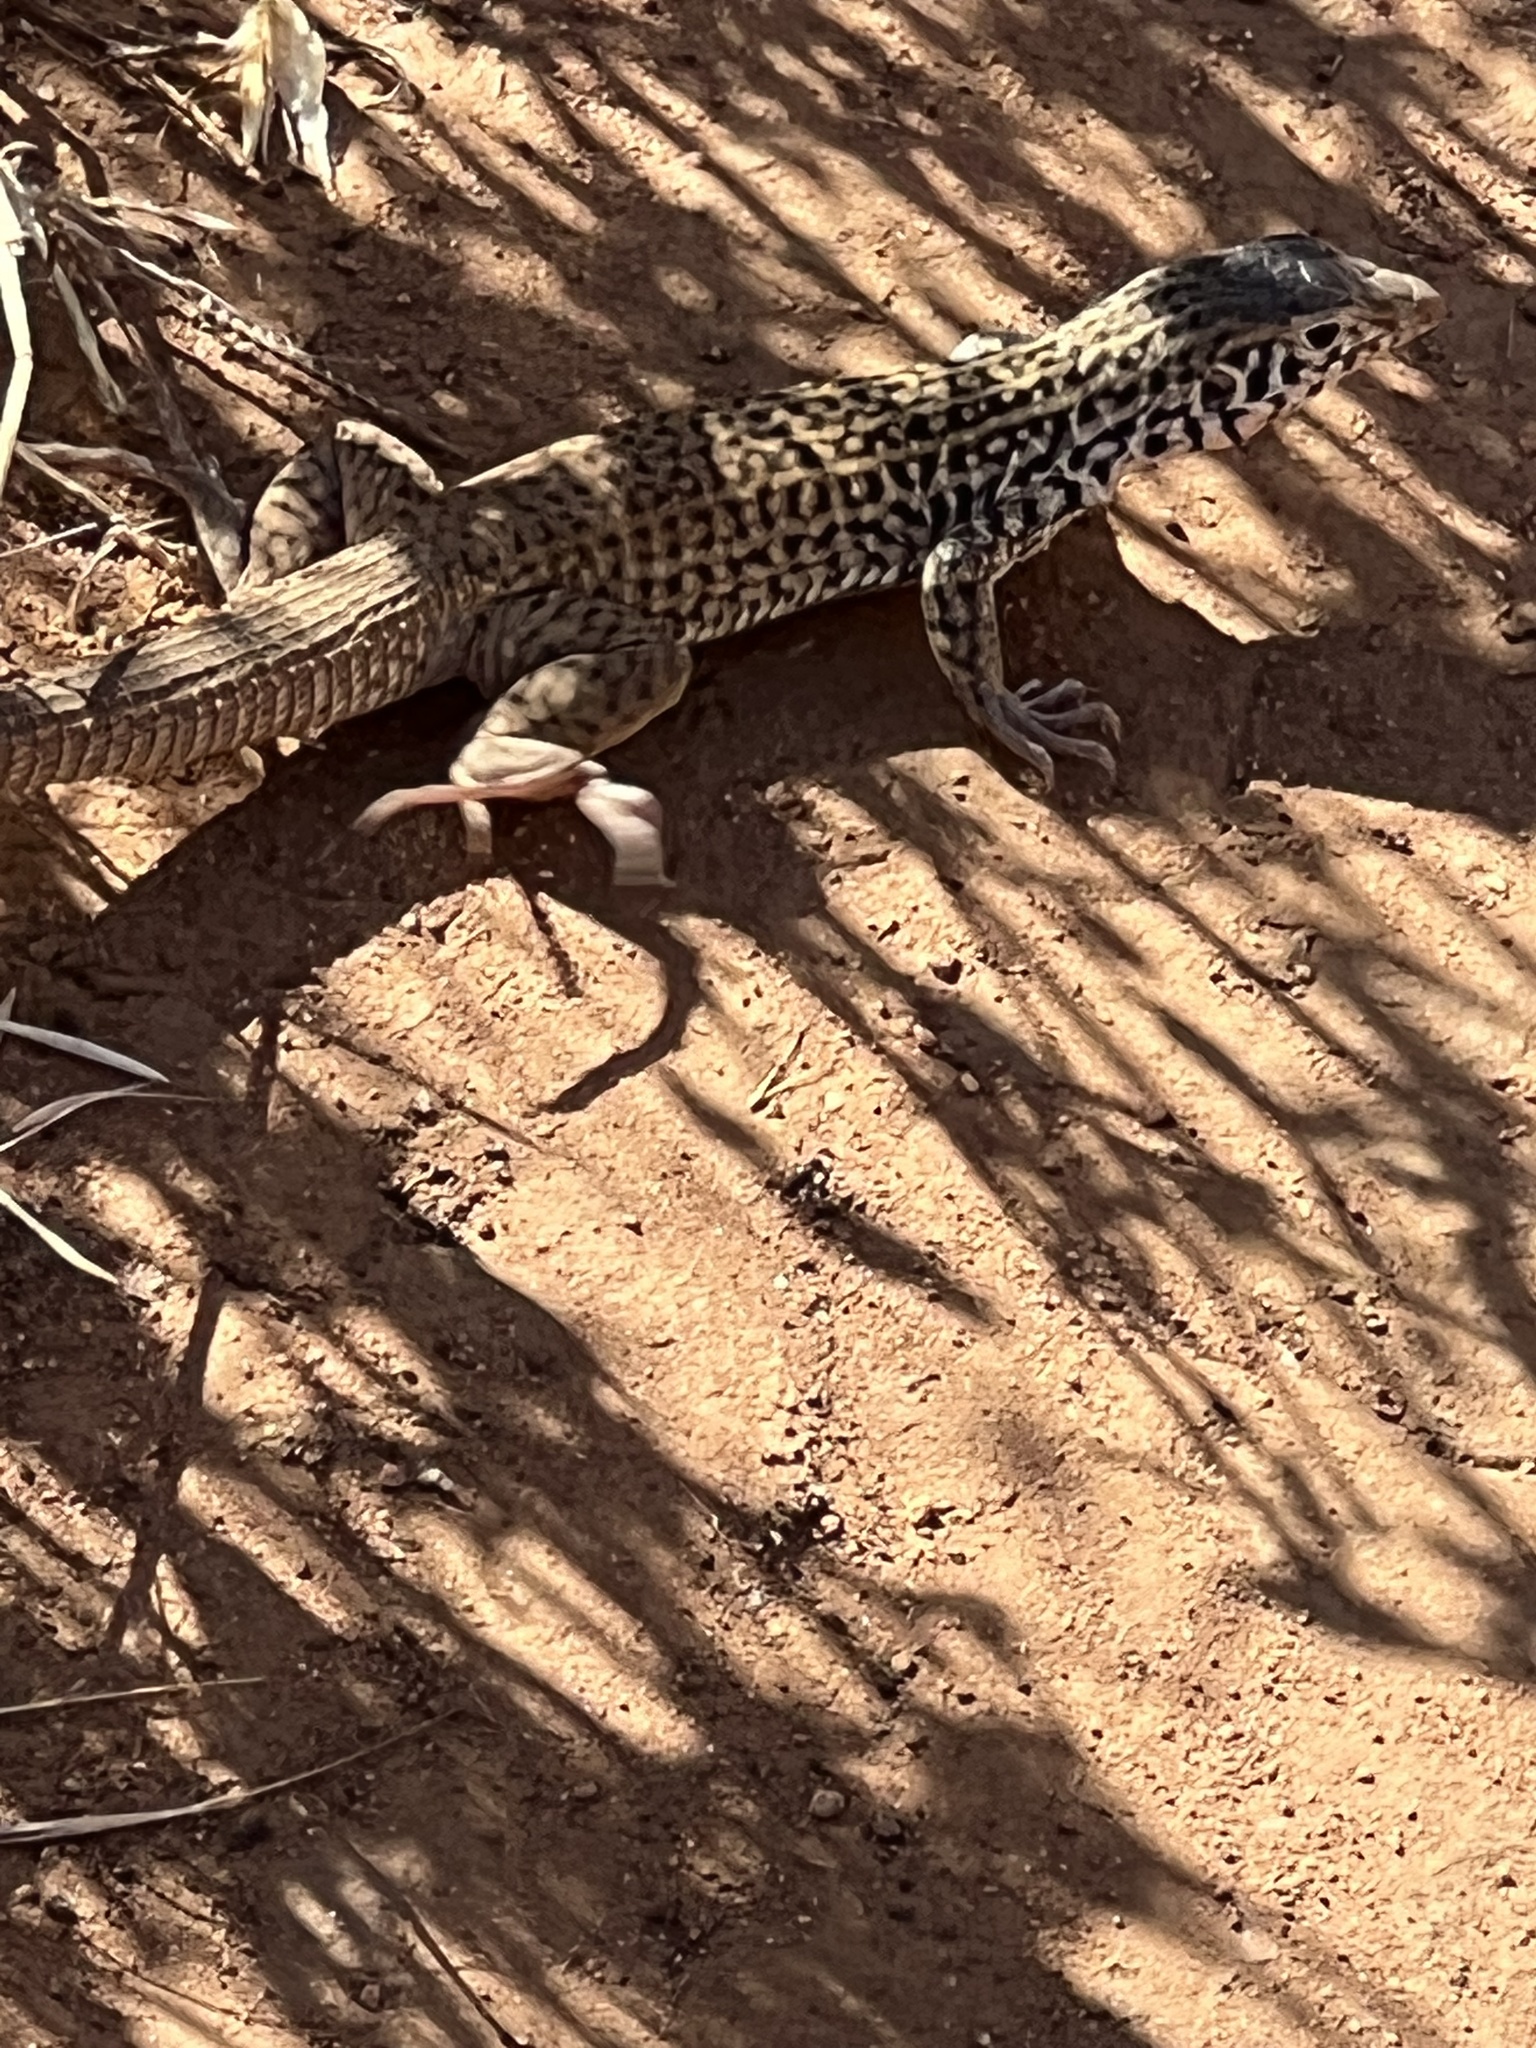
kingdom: Animalia
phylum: Chordata
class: Squamata
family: Teiidae
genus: Aspidoscelis
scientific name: Aspidoscelis tigris
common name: Tiger whiptail
